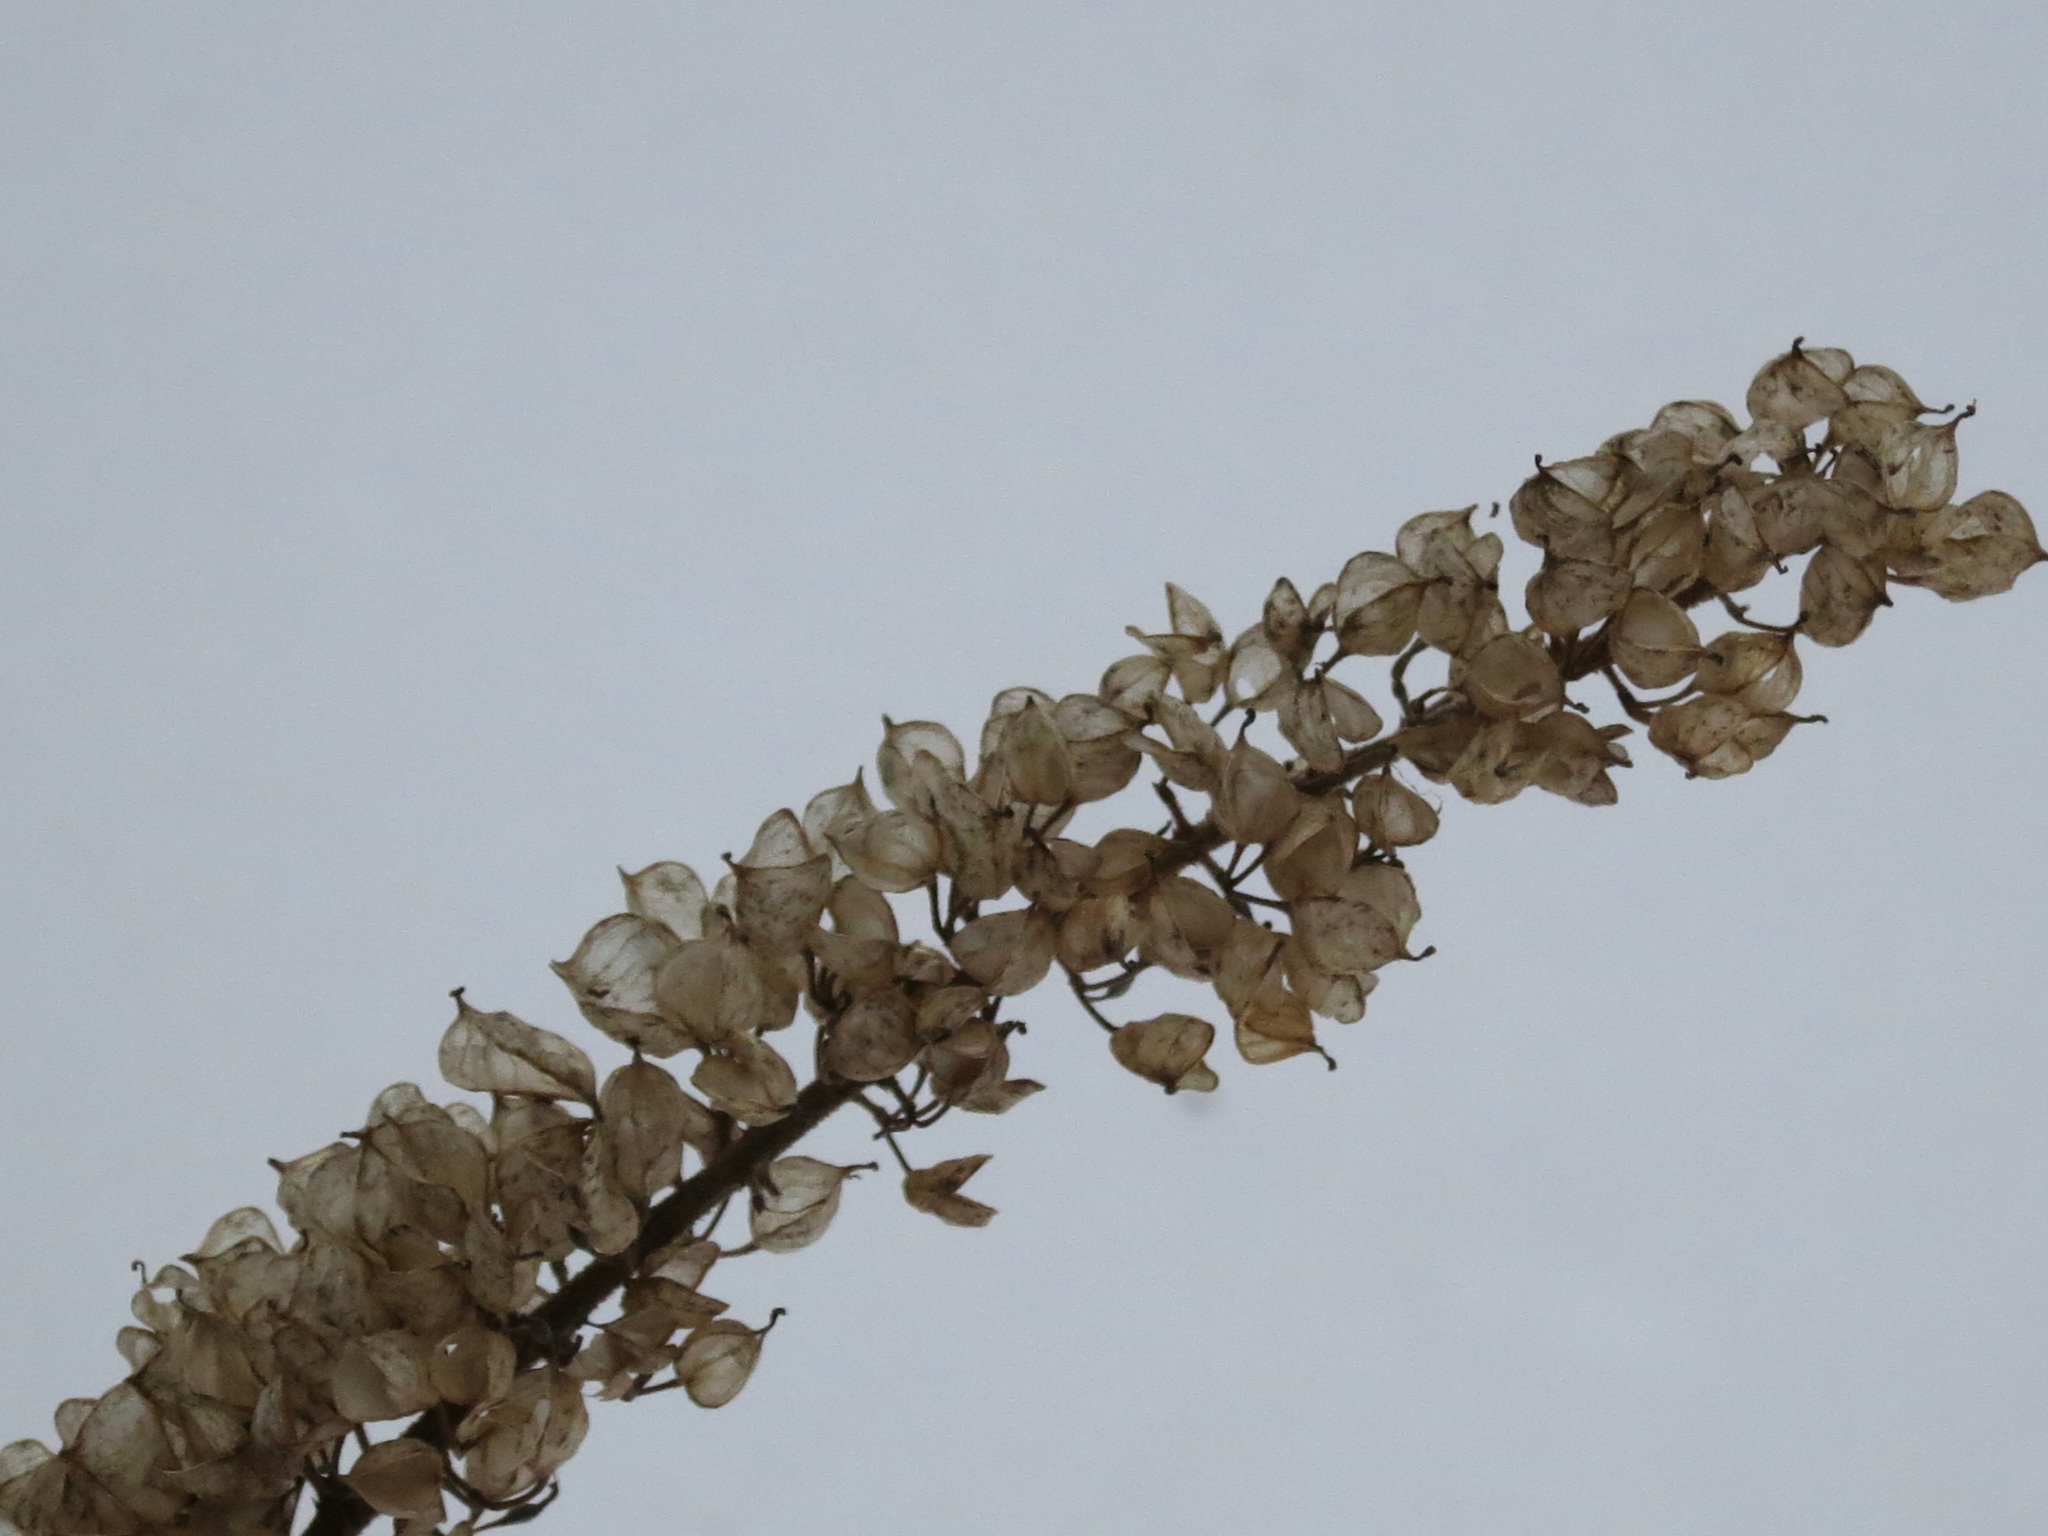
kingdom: Plantae
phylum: Tracheophyta
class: Magnoliopsida
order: Ranunculales
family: Ranunculaceae
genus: Actaea
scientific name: Actaea simplex
